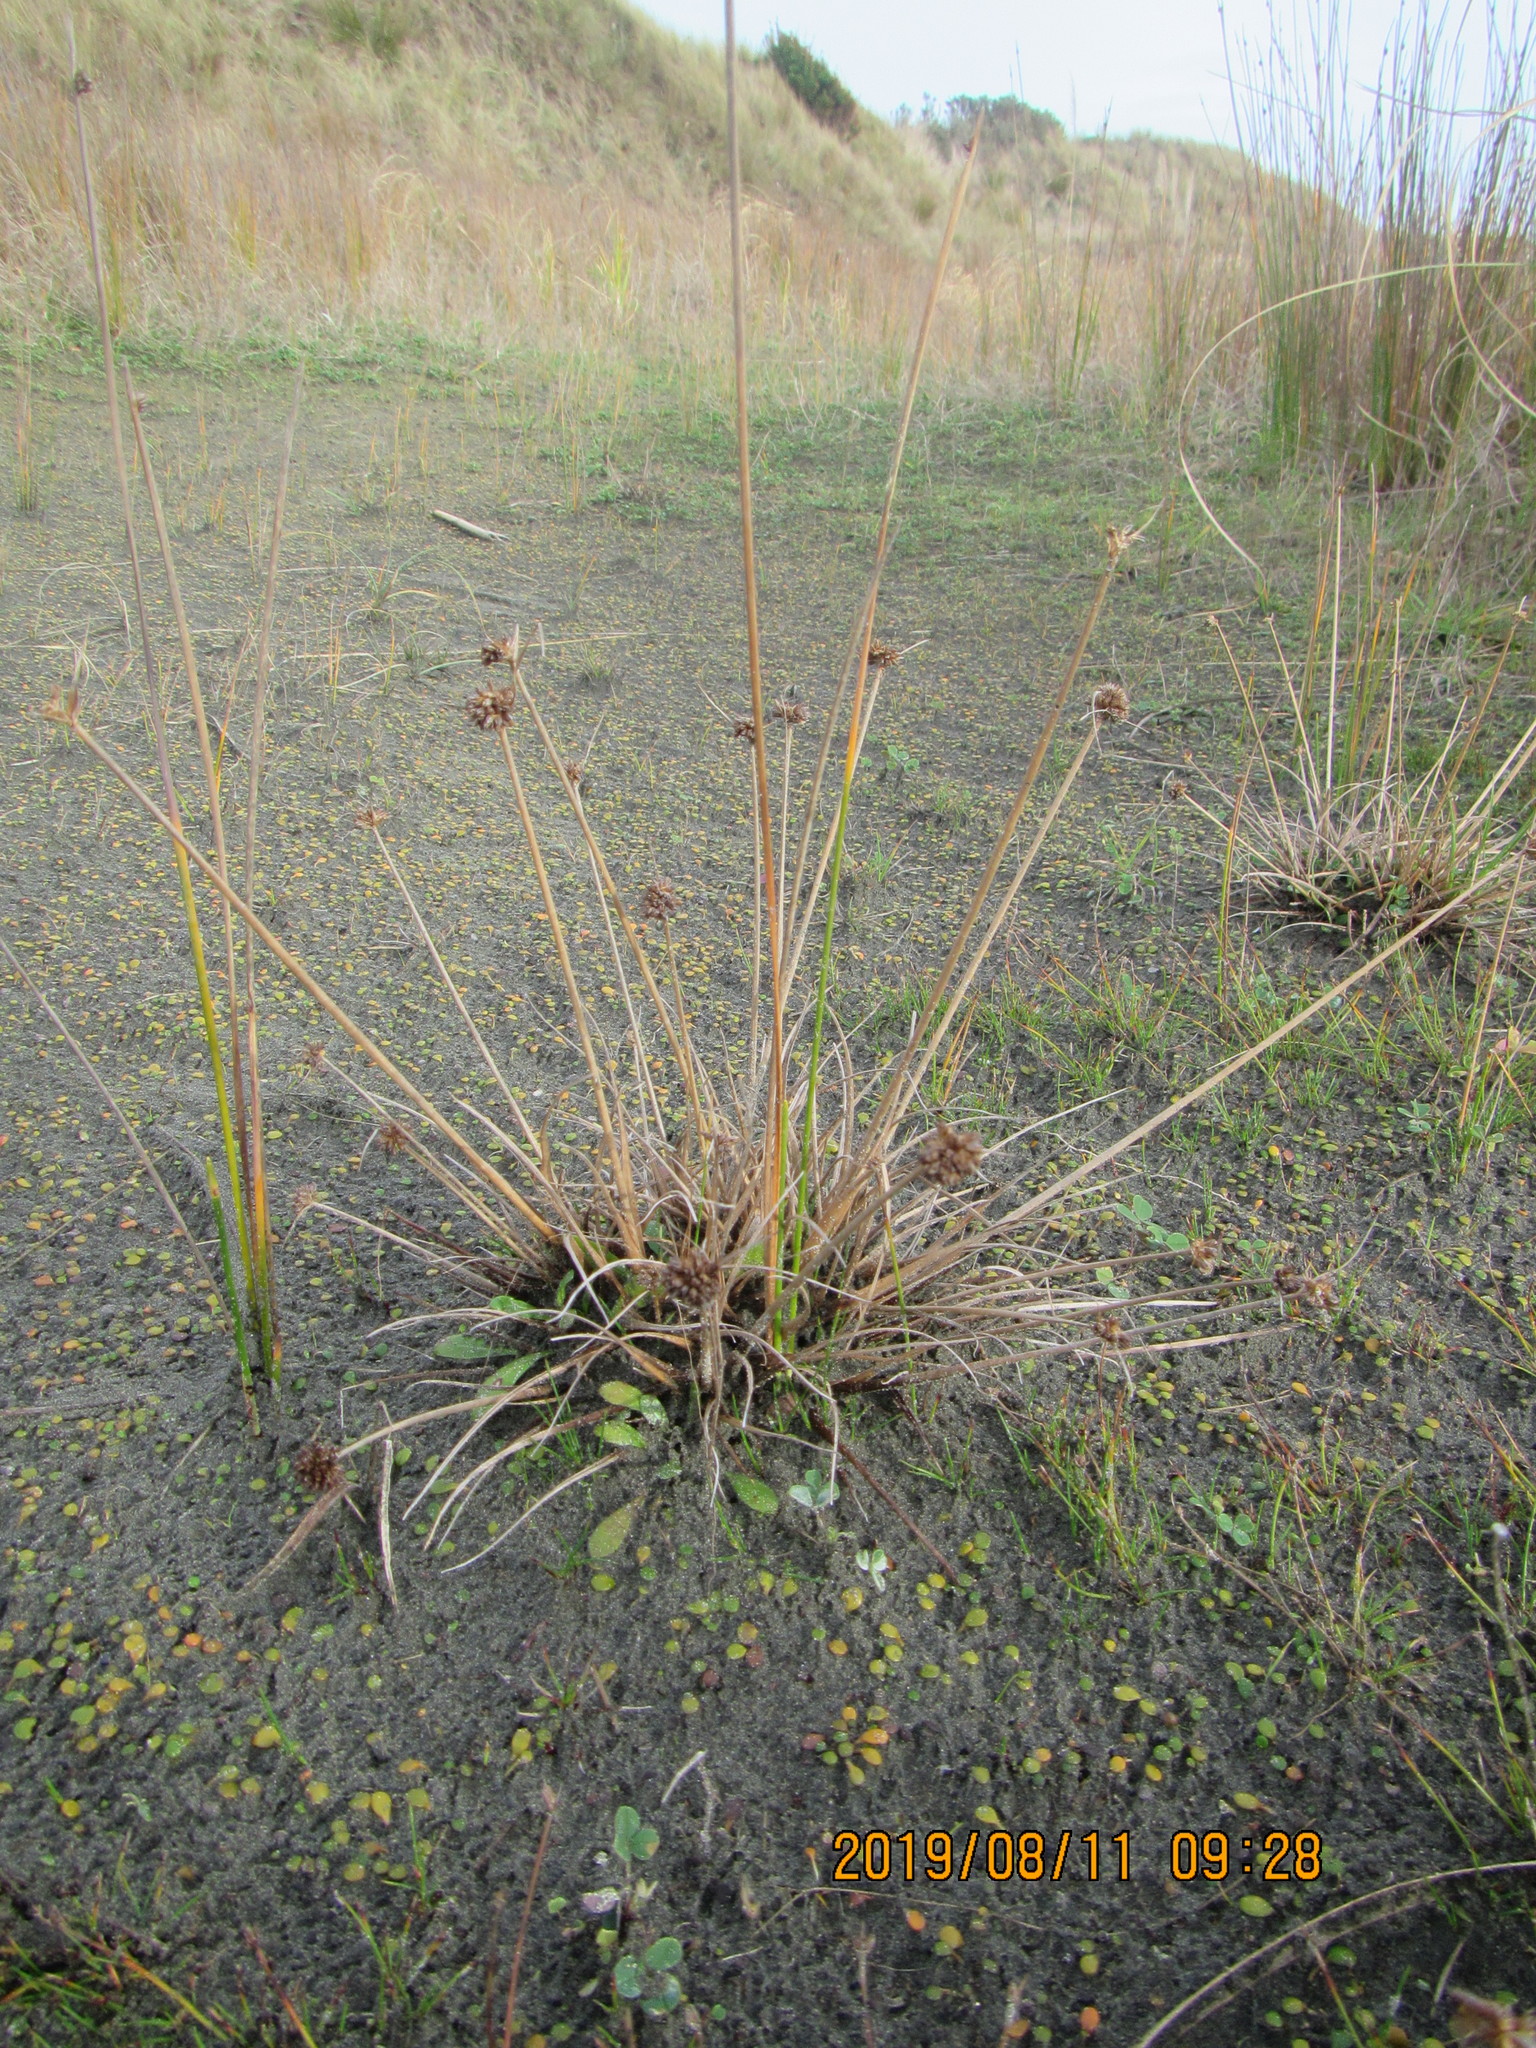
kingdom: Plantae
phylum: Tracheophyta
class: Liliopsida
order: Poales
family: Juncaceae
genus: Juncus
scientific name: Juncus caespiticius
